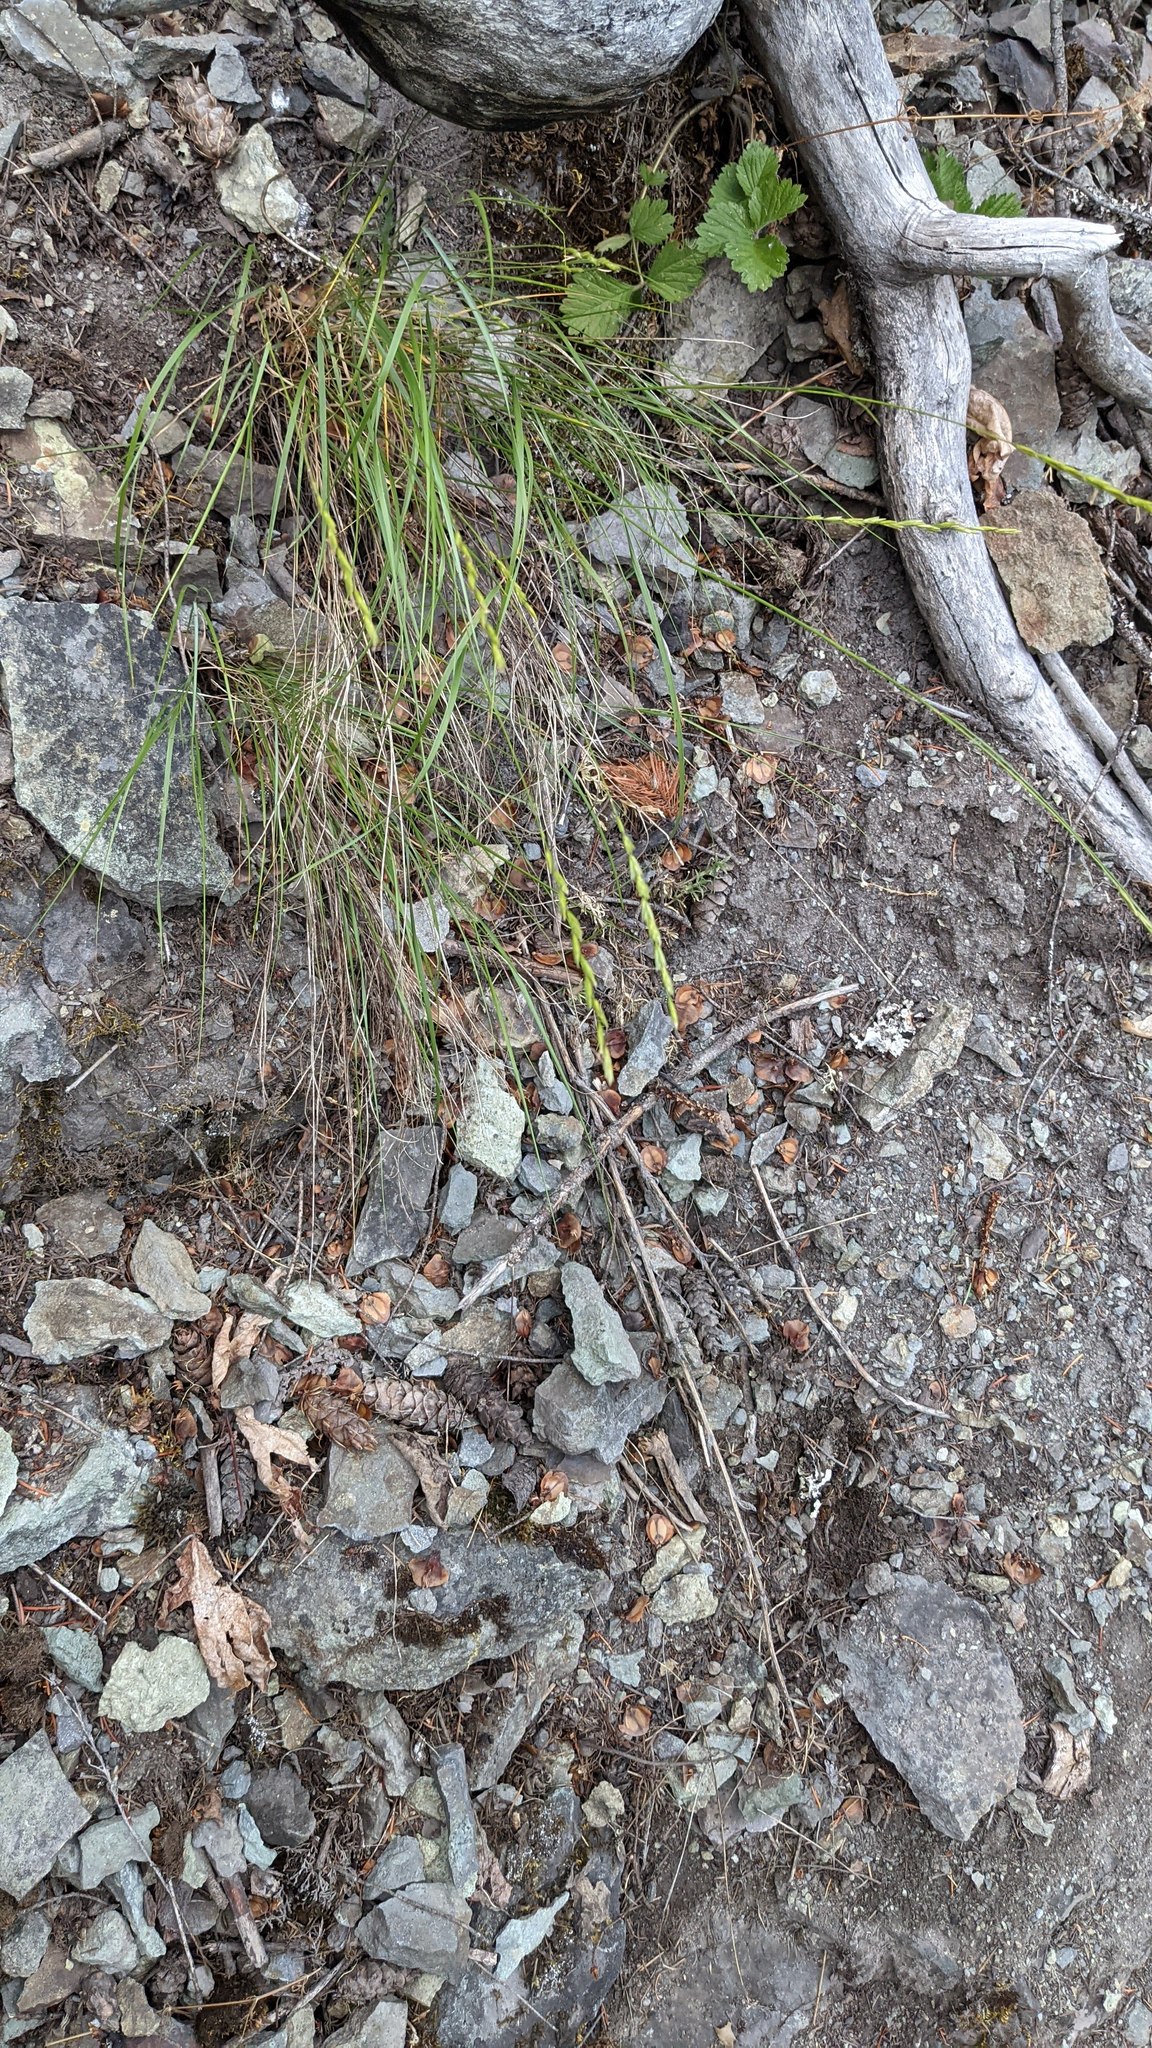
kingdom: Plantae
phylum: Tracheophyta
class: Liliopsida
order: Poales
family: Poaceae
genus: Elymus
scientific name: Elymus glaucus
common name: Blue wild rye
